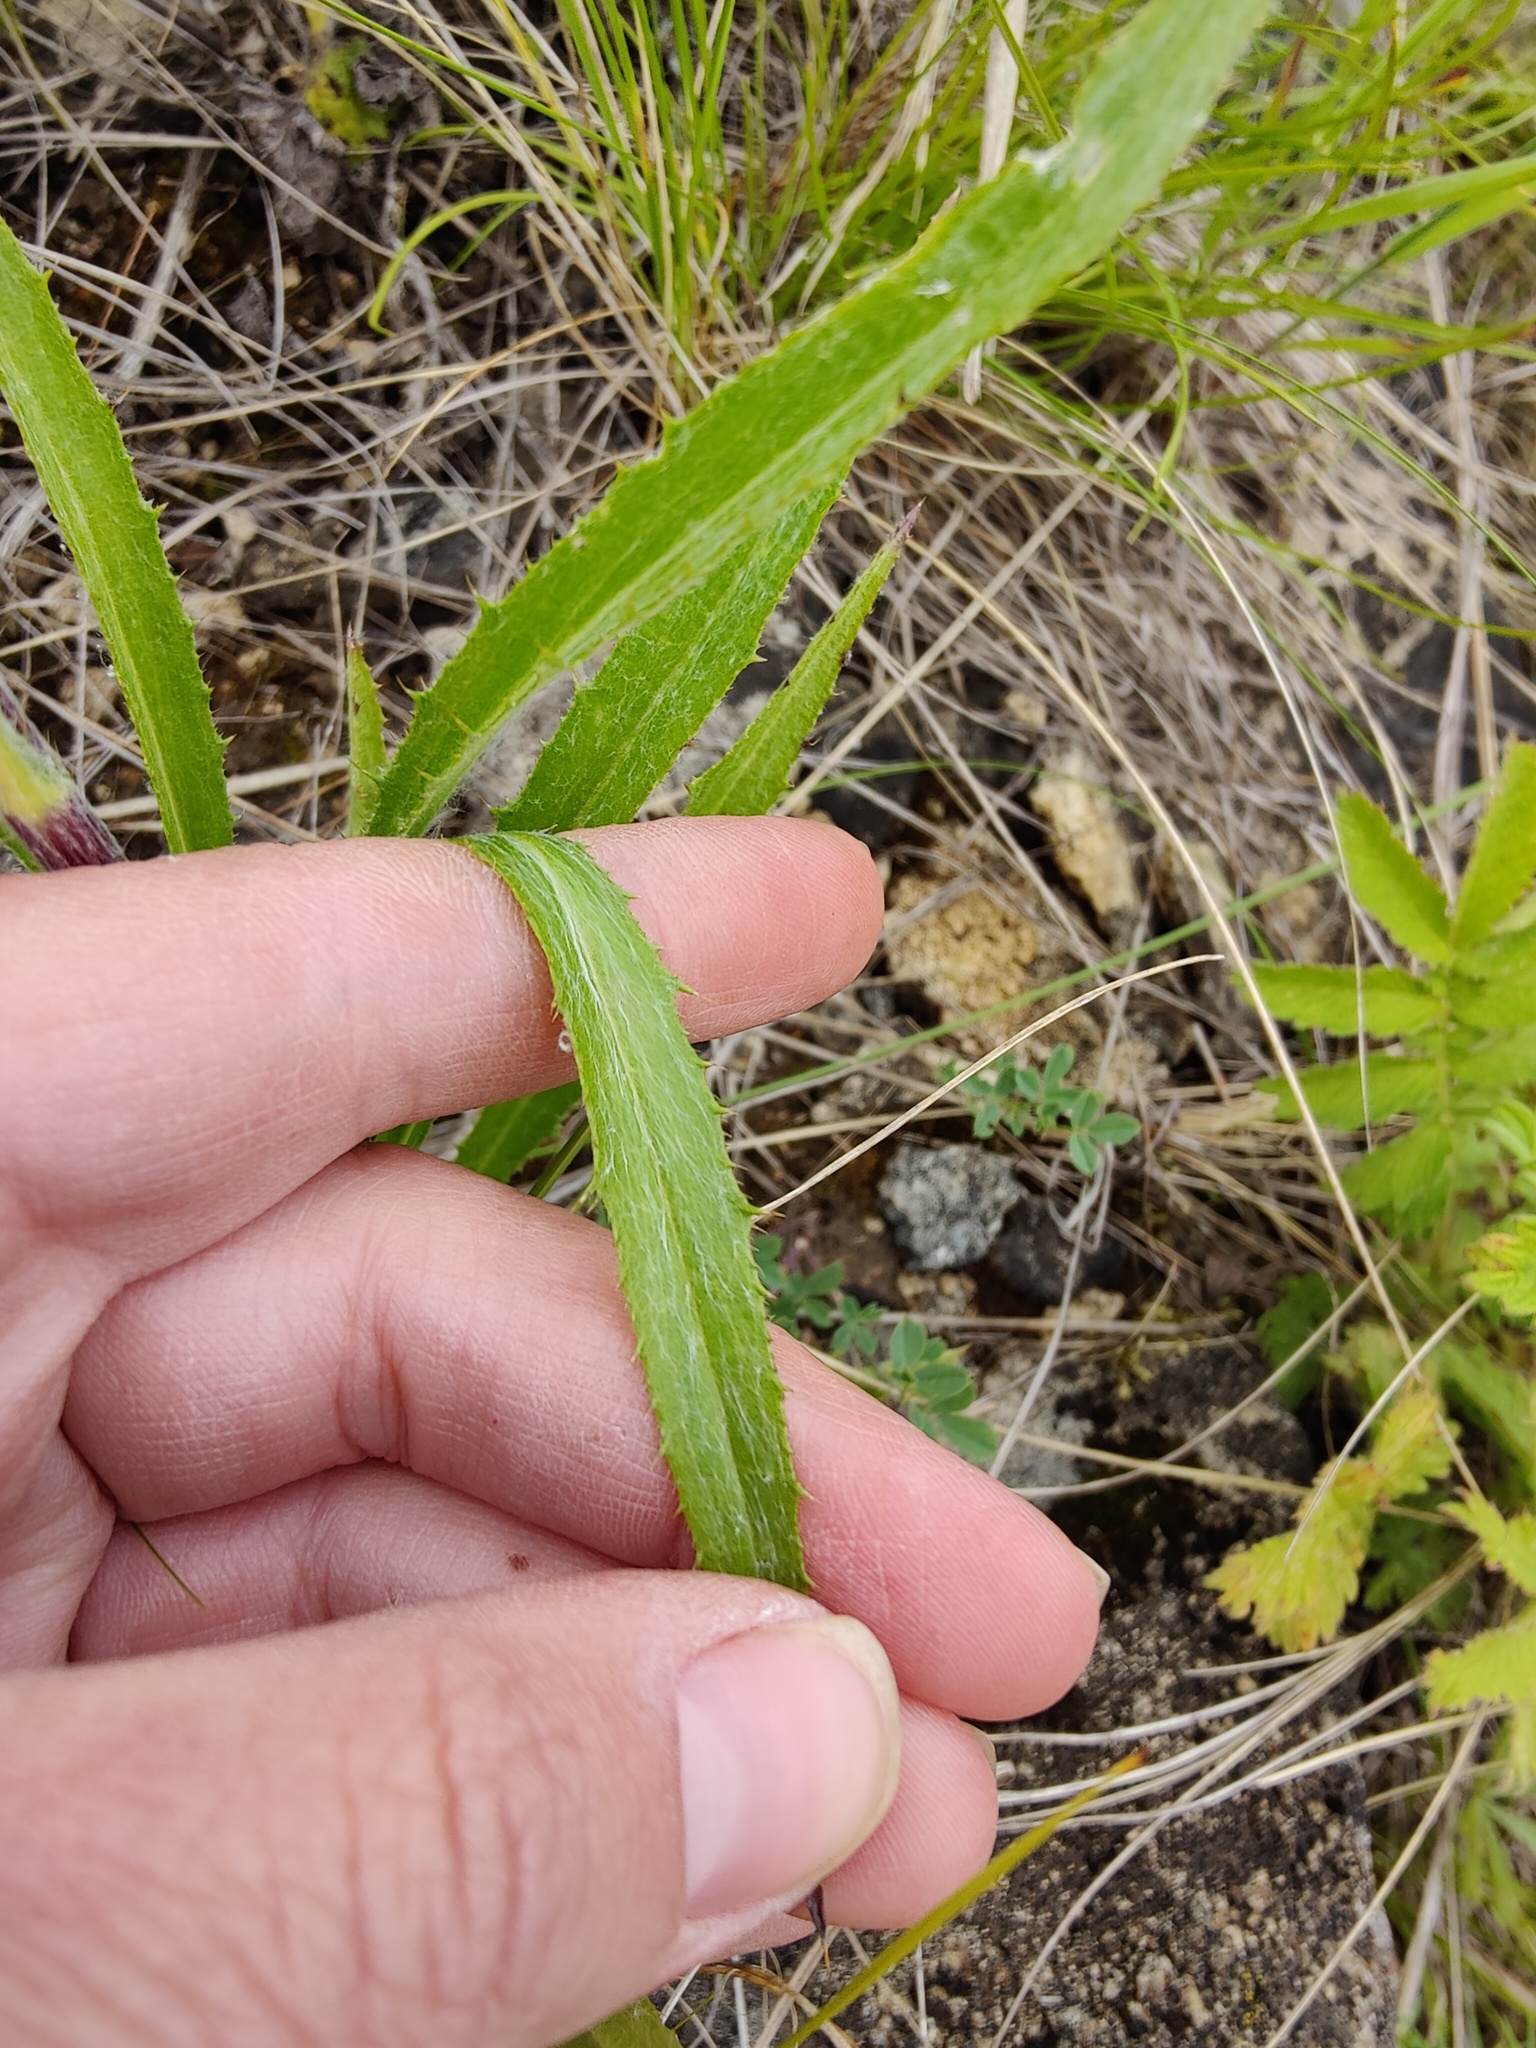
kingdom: Plantae
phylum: Tracheophyta
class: Magnoliopsida
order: Asterales
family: Asteraceae
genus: Carlina
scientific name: Carlina biebersteinii
